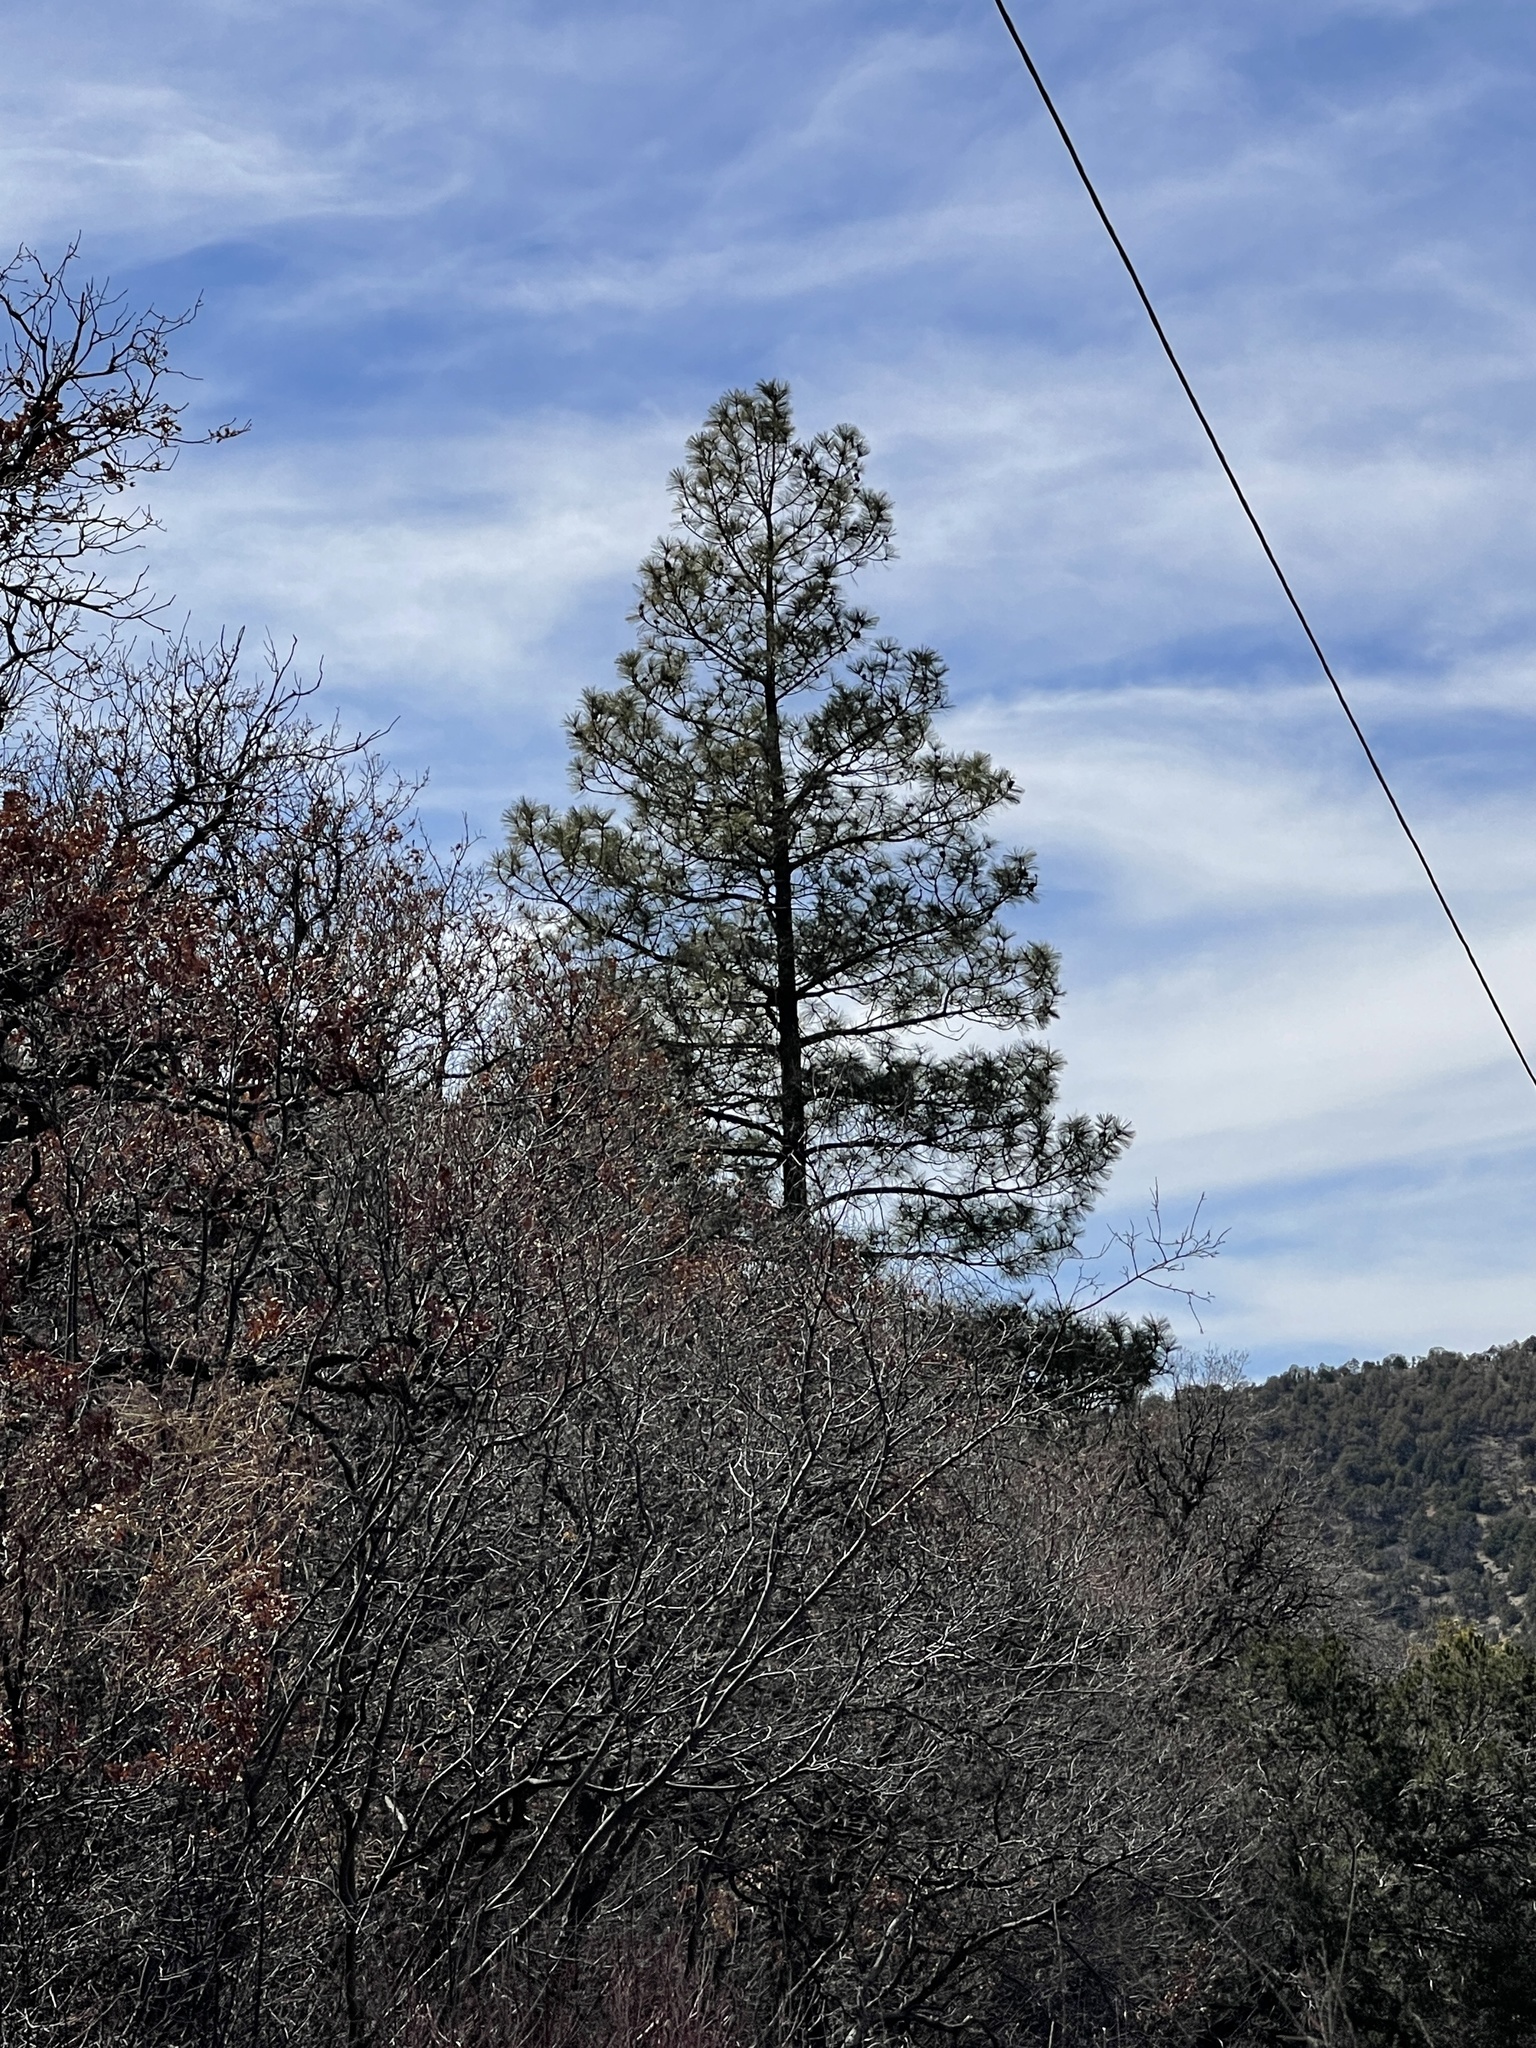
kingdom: Plantae
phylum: Tracheophyta
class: Pinopsida
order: Pinales
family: Pinaceae
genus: Pinus
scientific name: Pinus ponderosa
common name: Western yellow-pine
